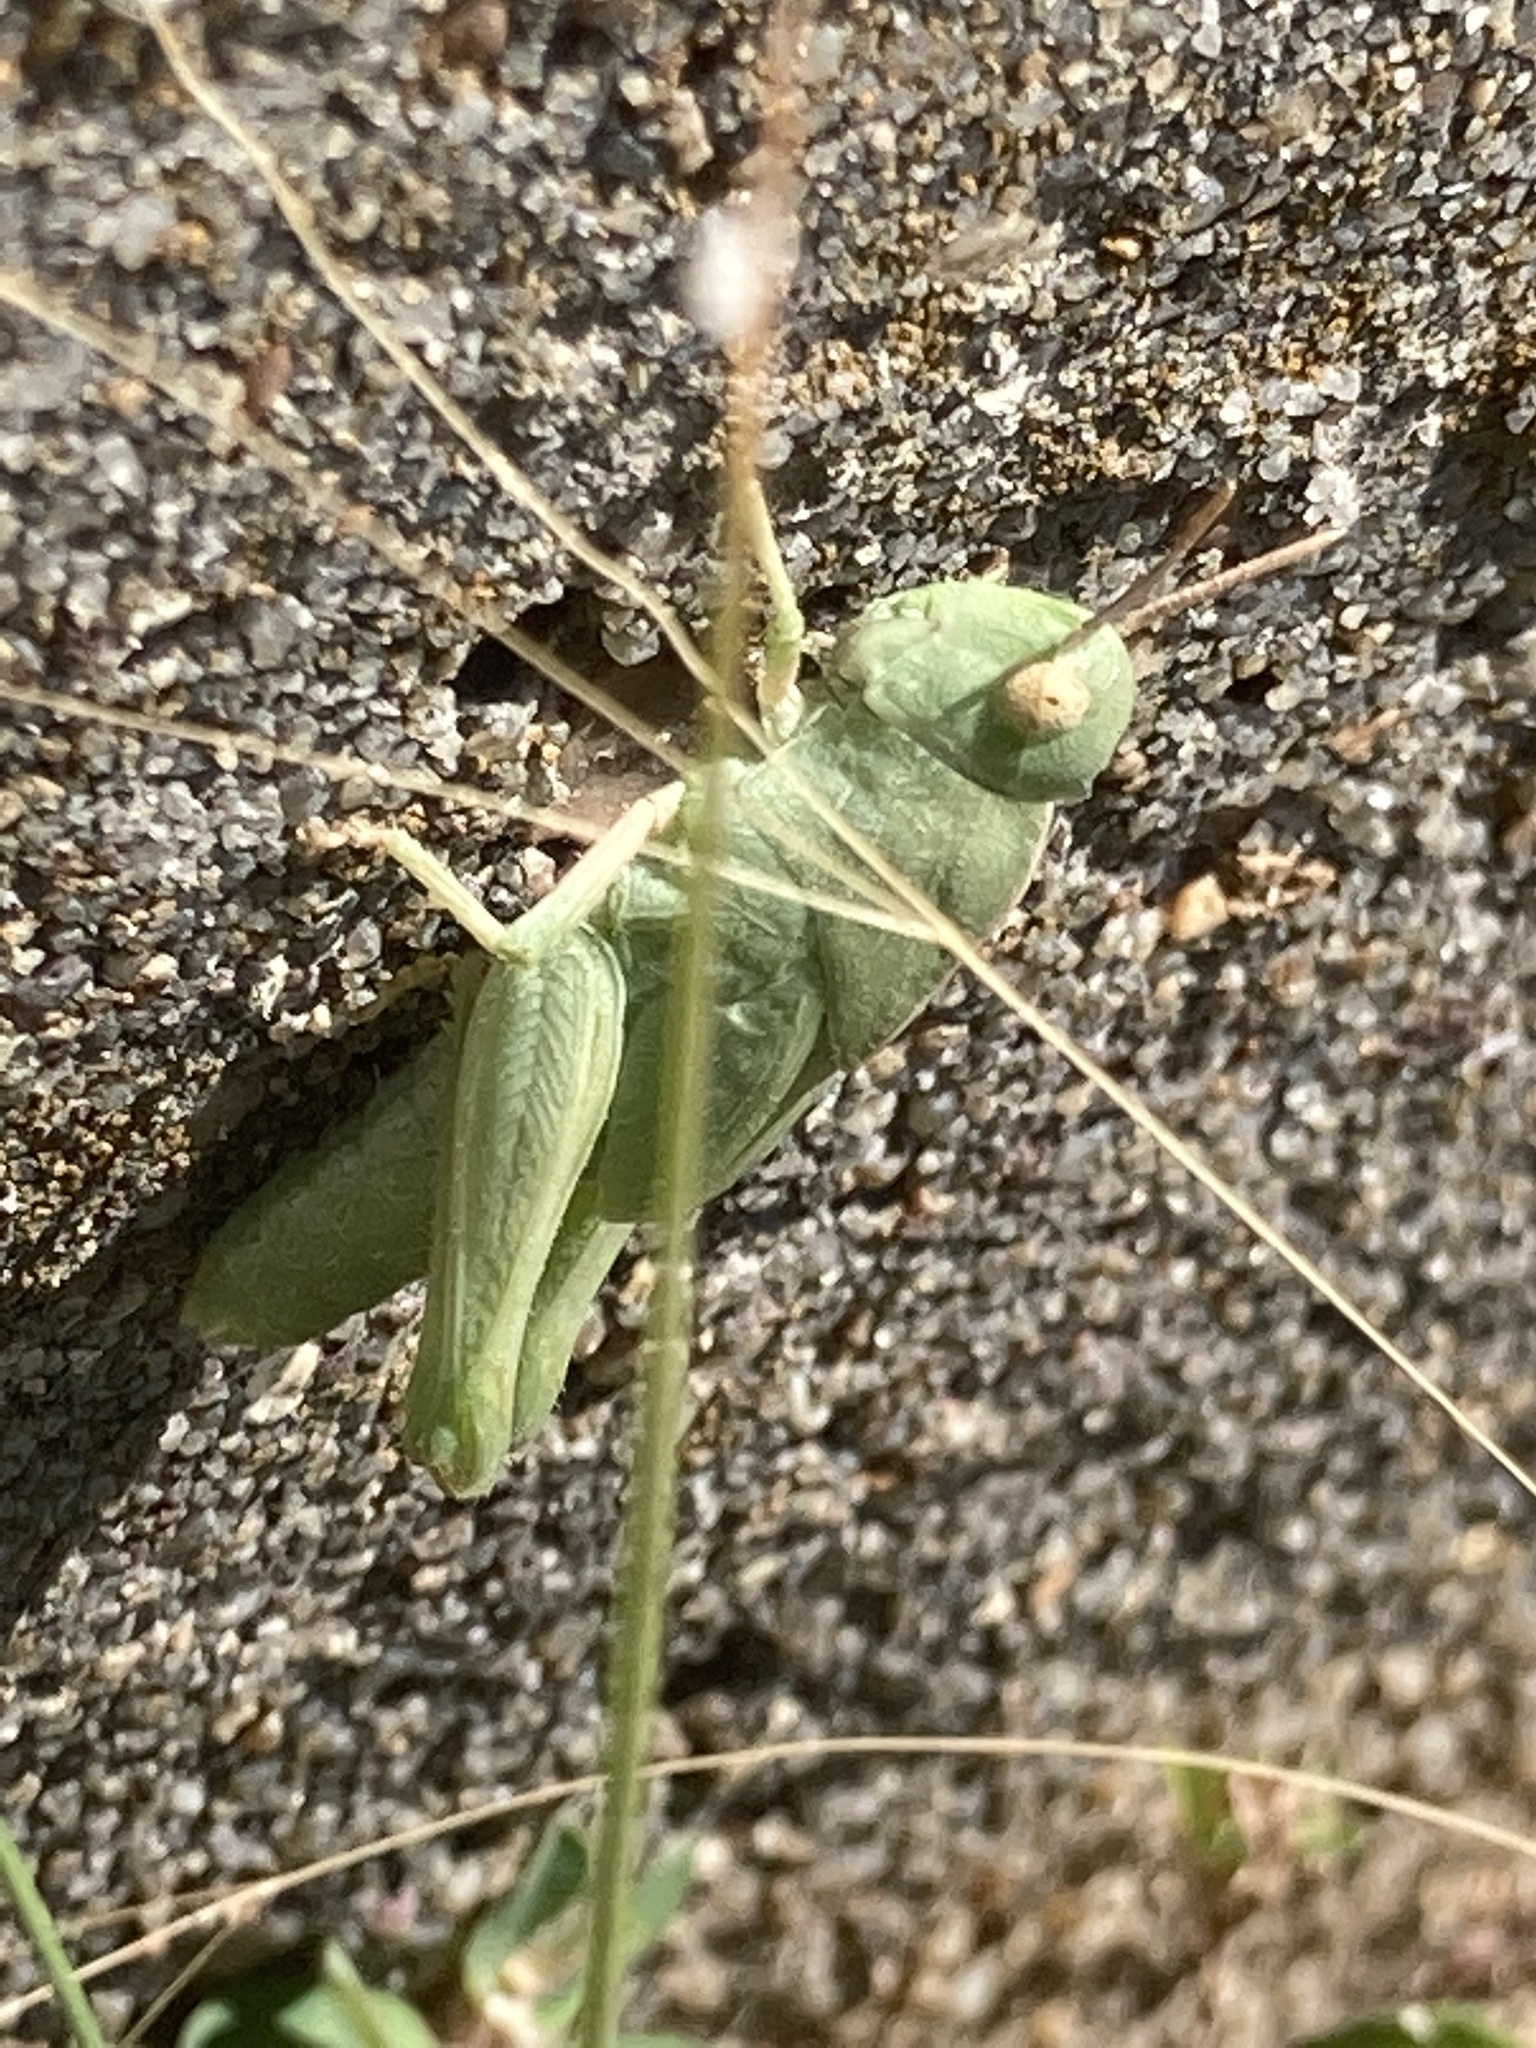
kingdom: Animalia
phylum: Arthropoda
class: Insecta
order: Orthoptera
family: Acrididae
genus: Chortophaga
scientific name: Chortophaga viridifasciata
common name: Green-striped grasshopper
